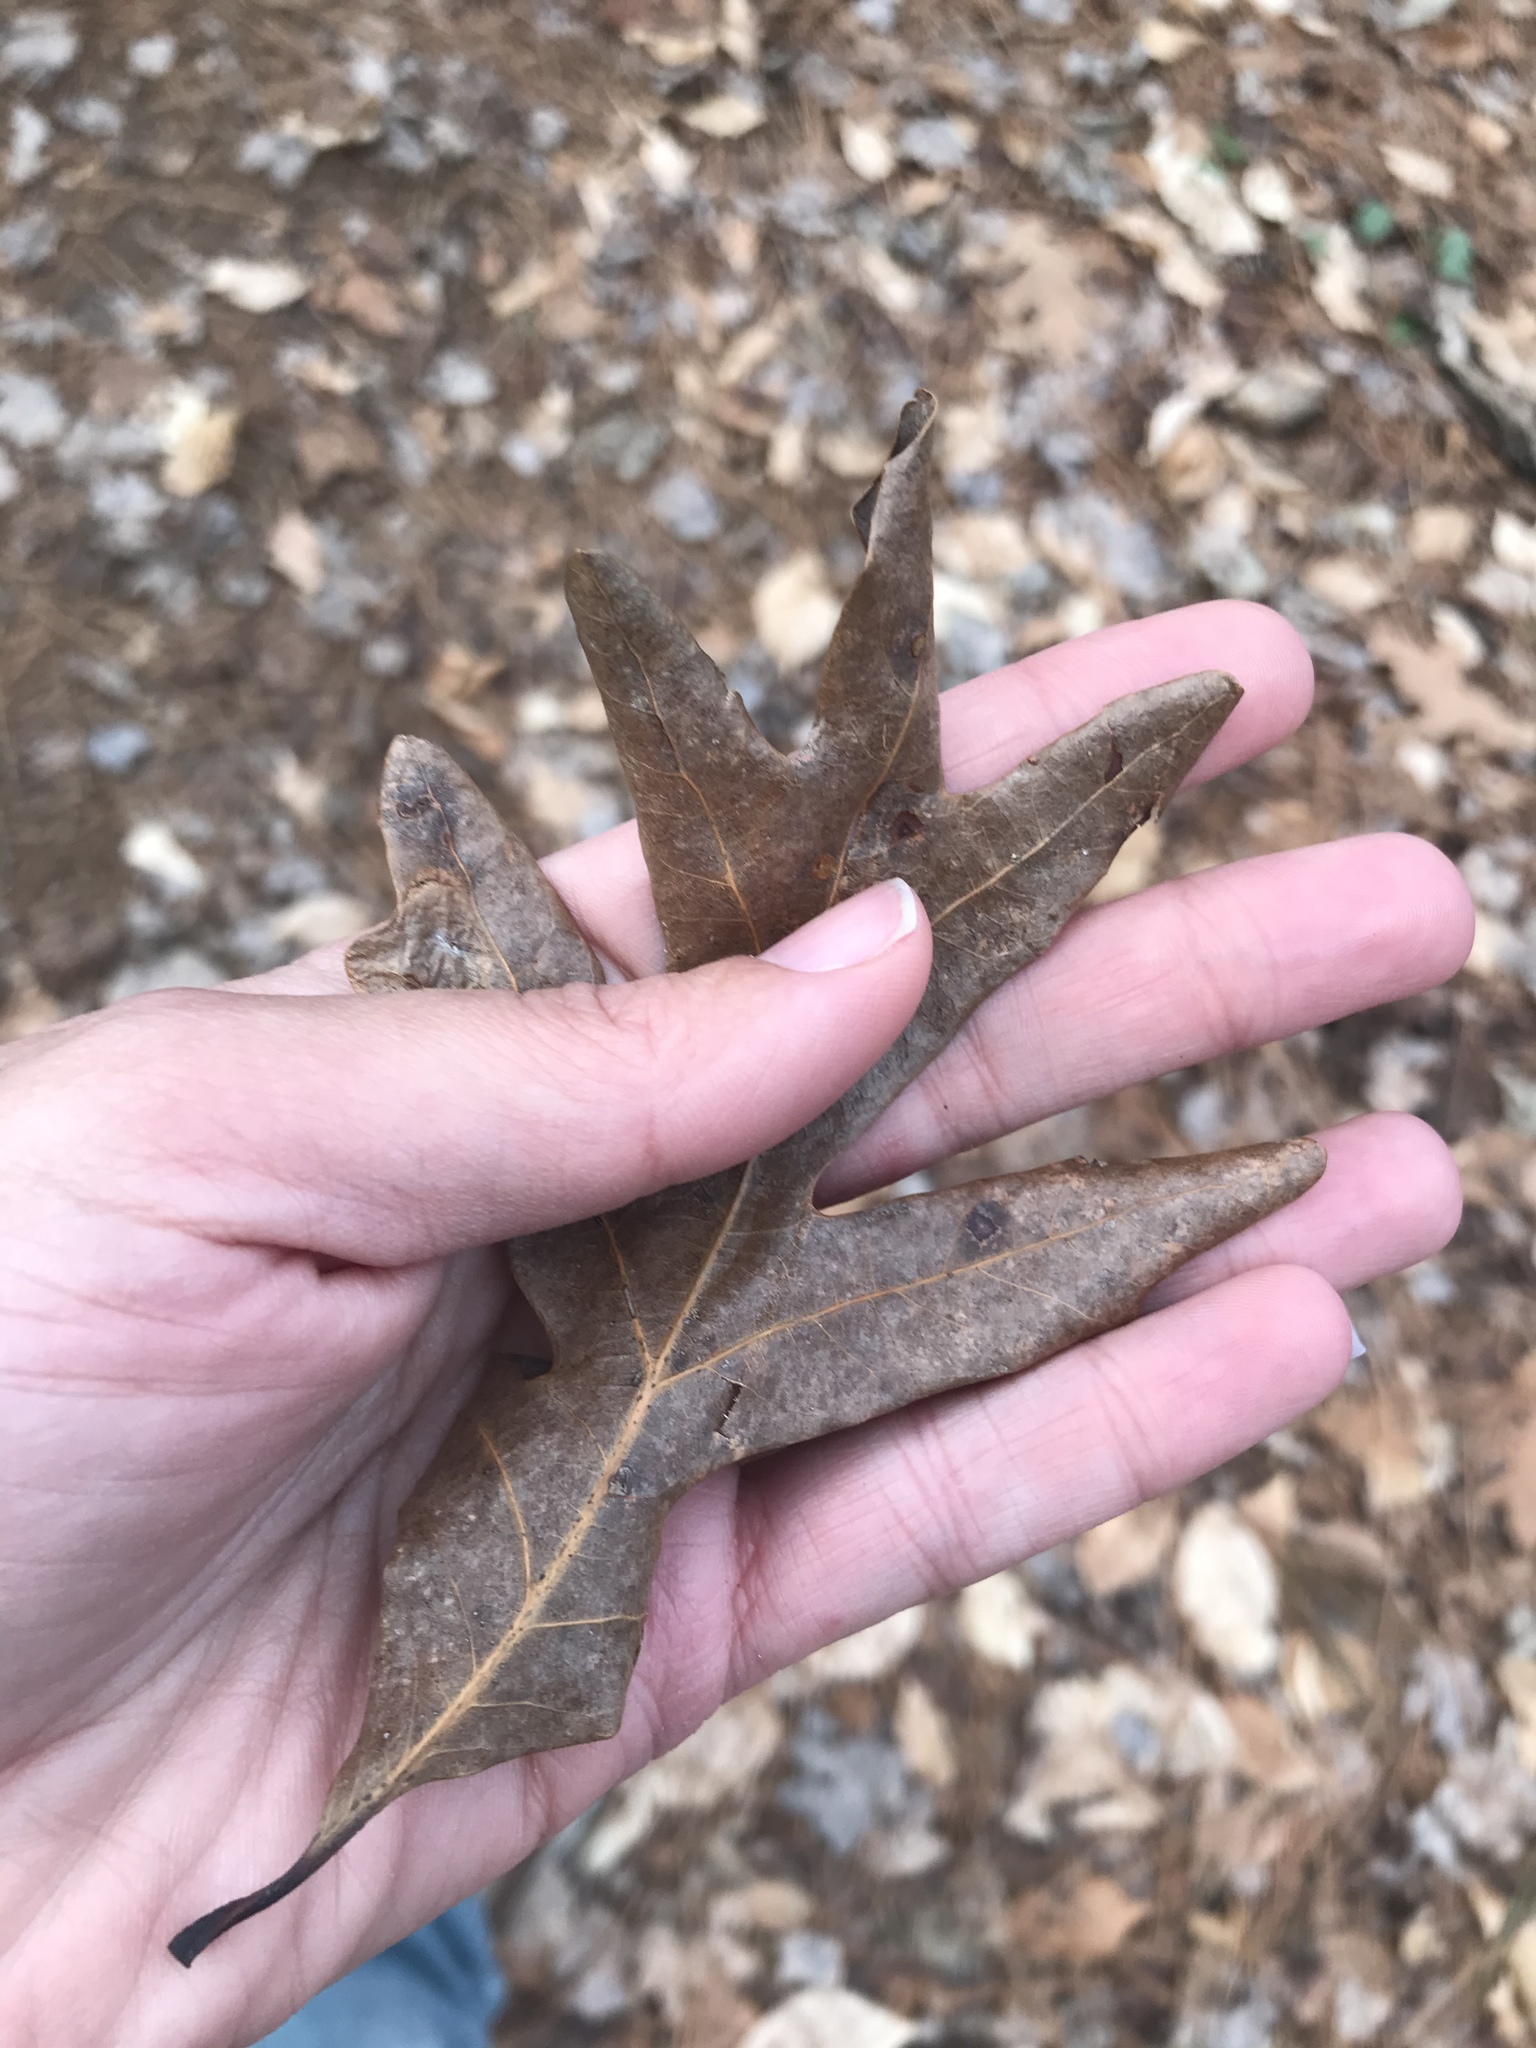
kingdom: Plantae
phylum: Tracheophyta
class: Magnoliopsida
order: Fagales
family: Fagaceae
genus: Quercus
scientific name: Quercus alba
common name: White oak
